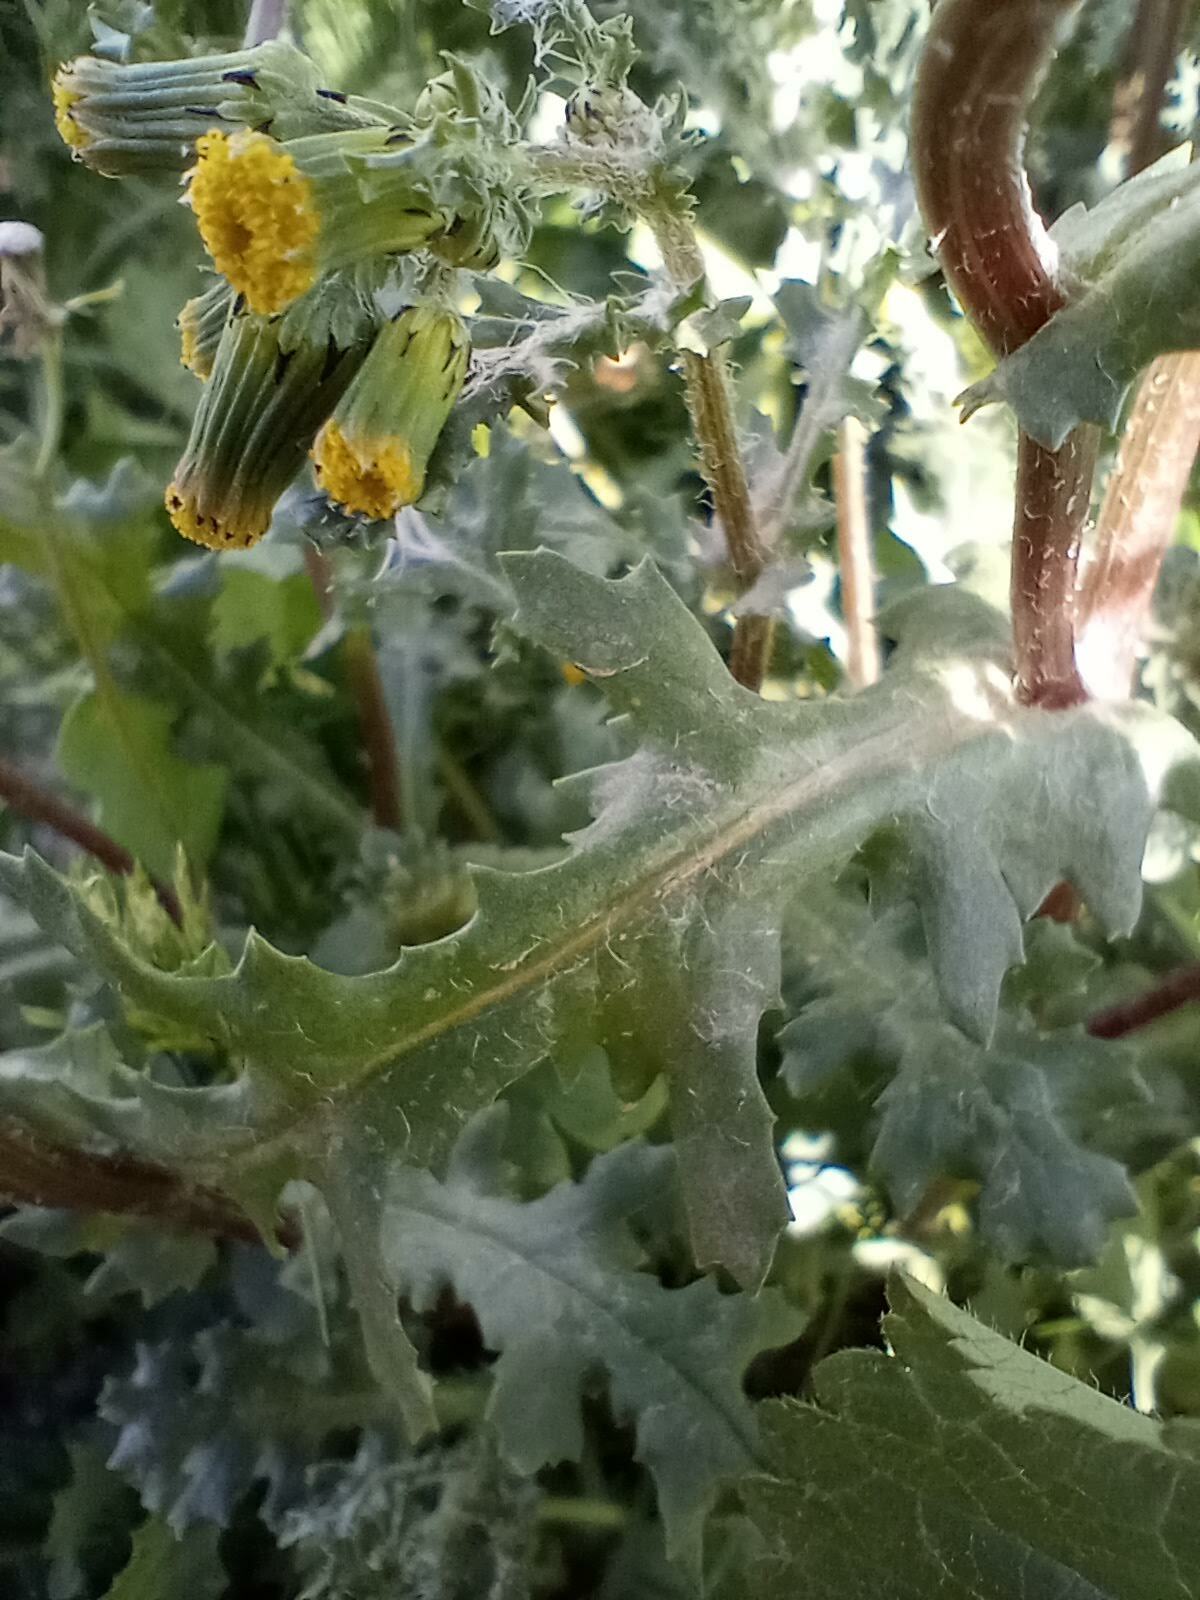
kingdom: Plantae
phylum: Tracheophyta
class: Magnoliopsida
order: Asterales
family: Asteraceae
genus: Senecio
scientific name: Senecio vulgaris
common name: Old-man-in-the-spring
